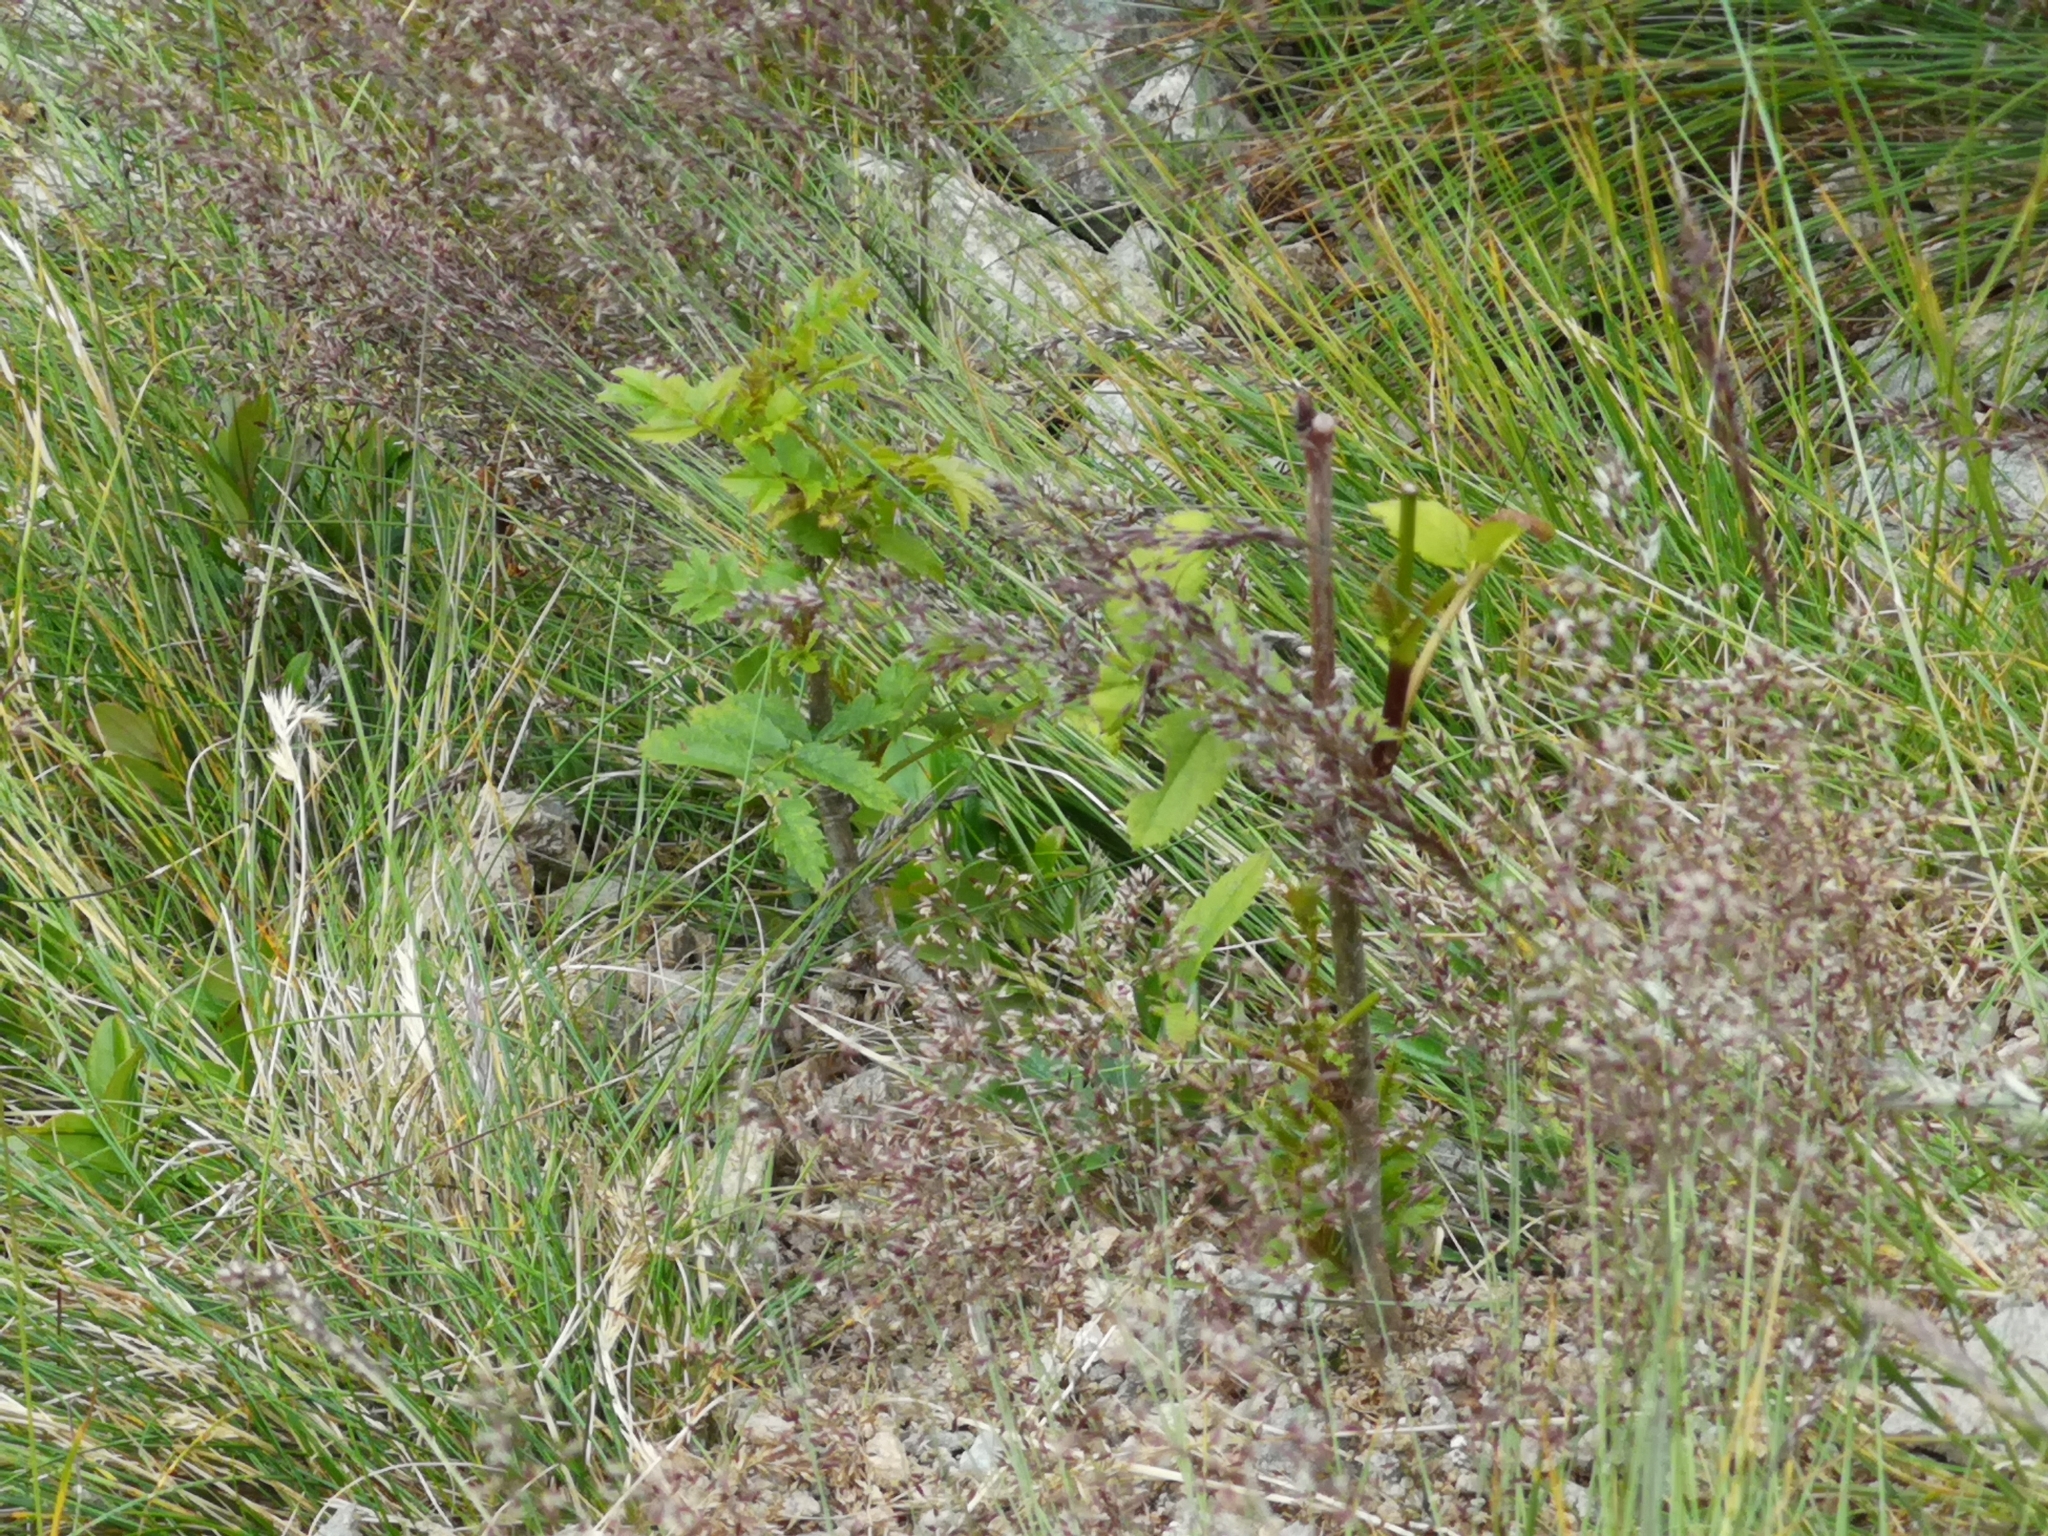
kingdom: Plantae
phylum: Tracheophyta
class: Magnoliopsida
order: Rosales
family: Rosaceae
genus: Sorbus
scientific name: Sorbus aucuparia
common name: Rowan
